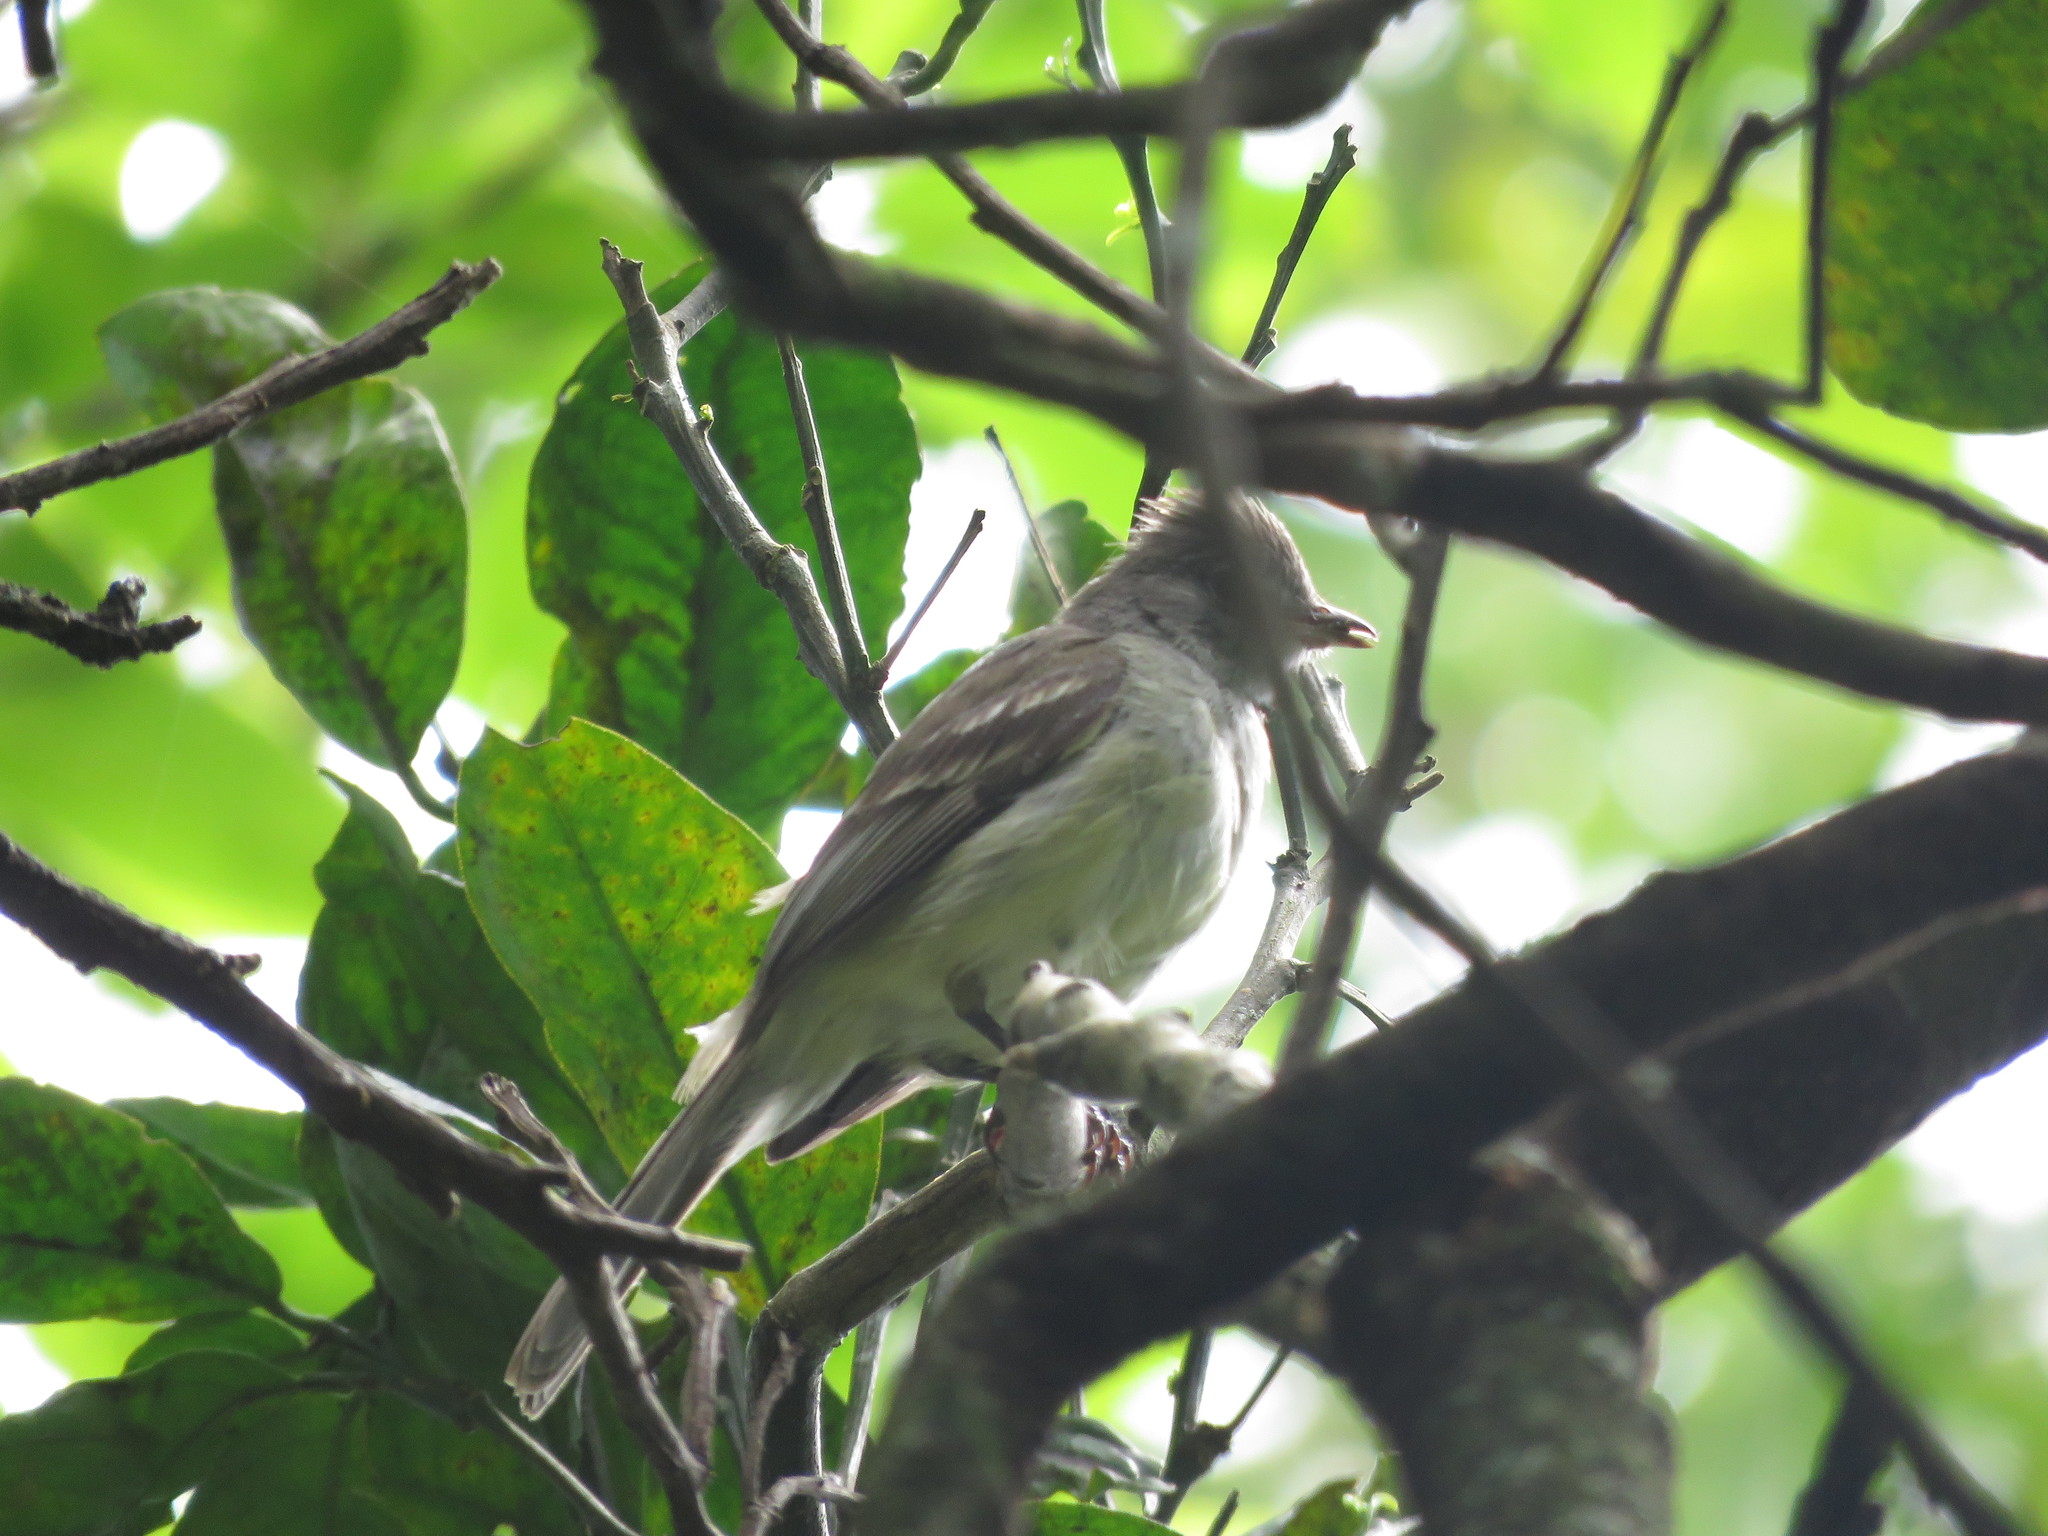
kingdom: Animalia
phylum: Chordata
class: Aves
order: Passeriformes
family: Tyrannidae
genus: Elaenia
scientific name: Elaenia flavogaster
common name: Yellow-bellied elaenia
